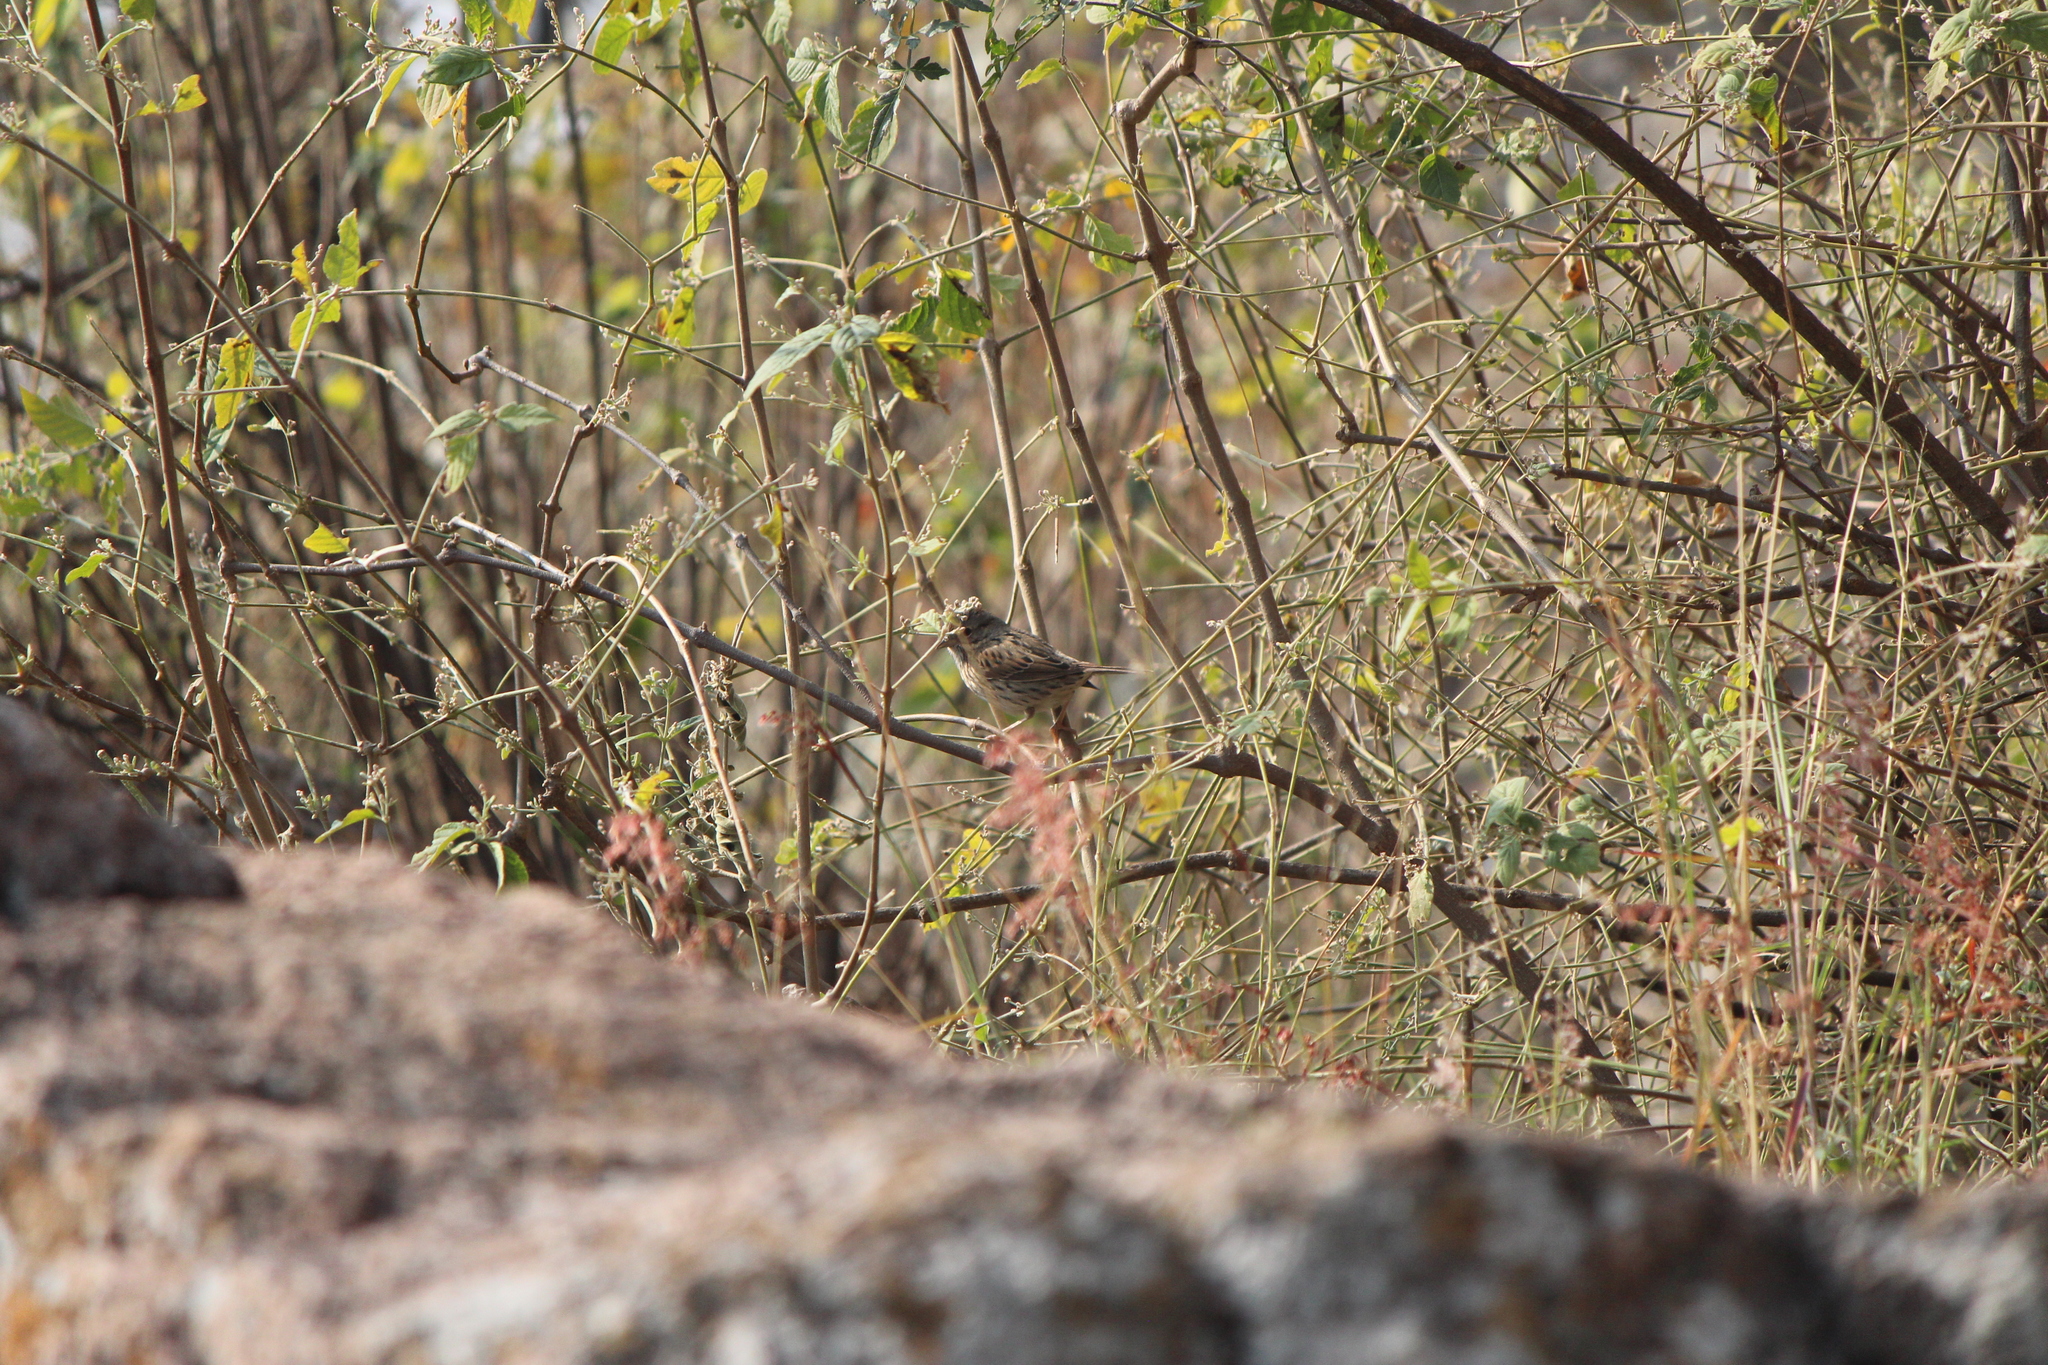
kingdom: Animalia
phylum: Chordata
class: Aves
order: Passeriformes
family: Passerellidae
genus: Melospiza
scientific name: Melospiza lincolnii
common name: Lincoln's sparrow
